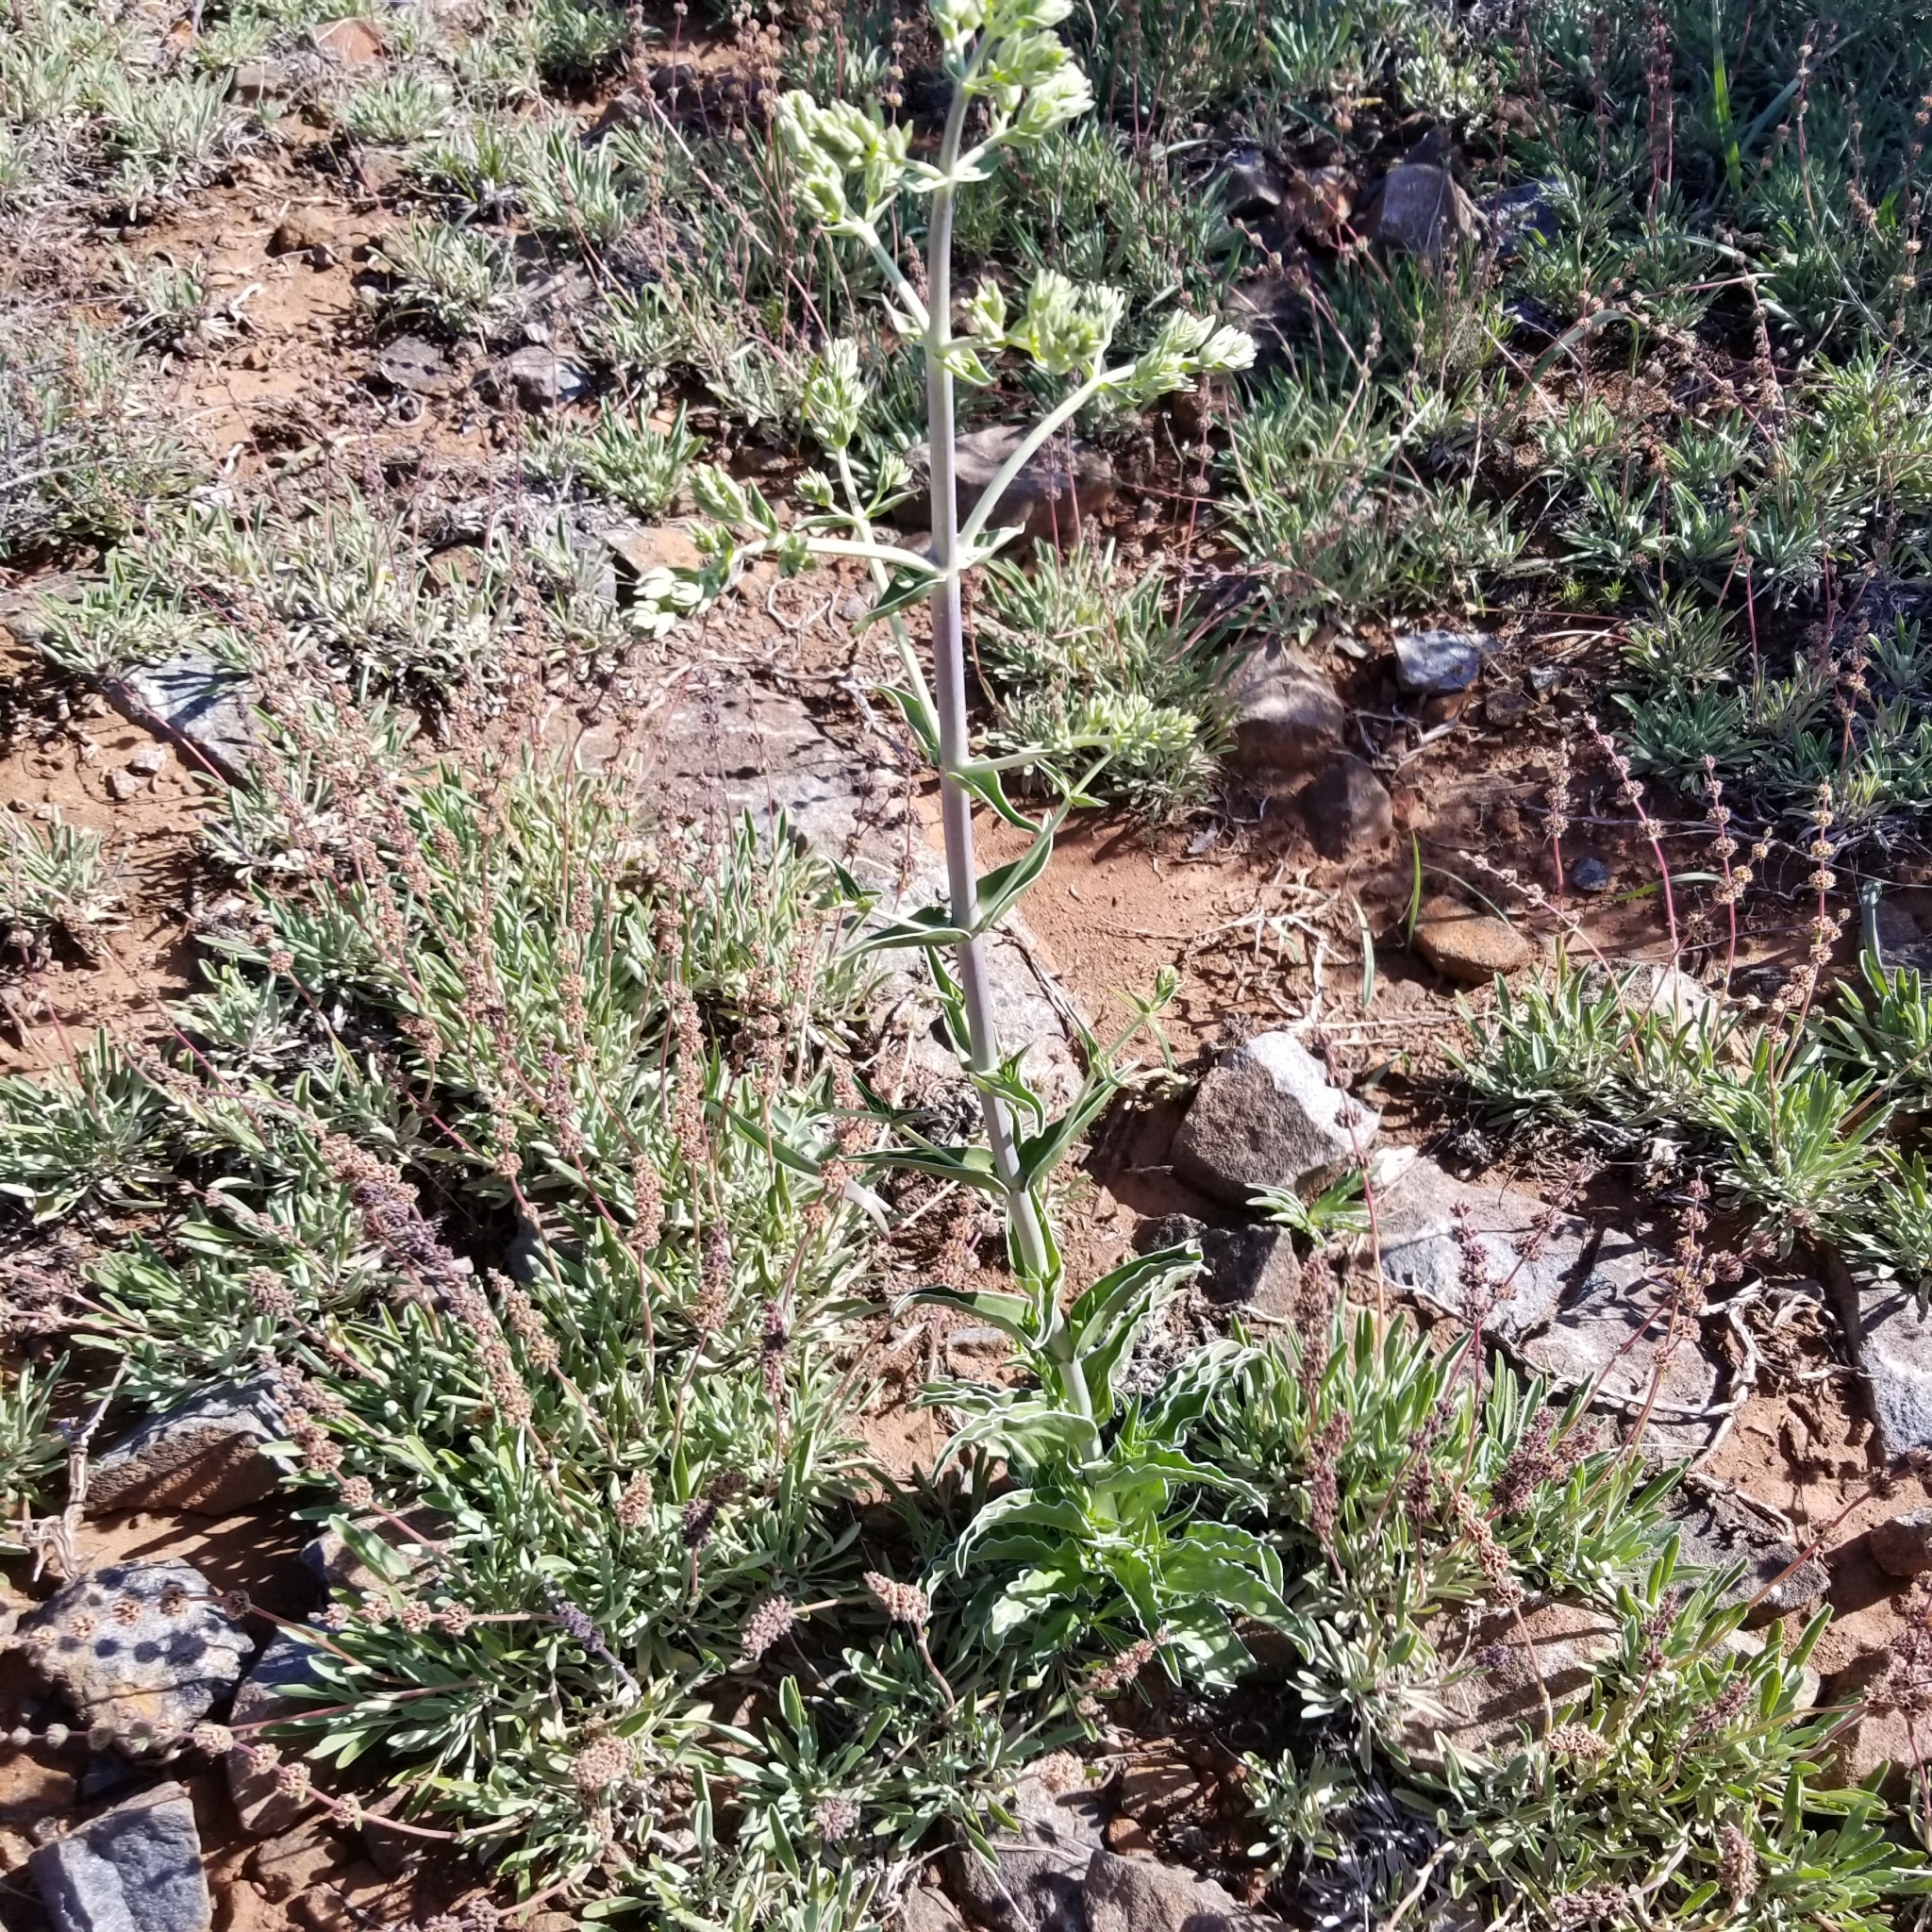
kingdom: Plantae
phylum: Tracheophyta
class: Magnoliopsida
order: Gentianales
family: Gentianaceae
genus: Frasera
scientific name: Frasera parryi
